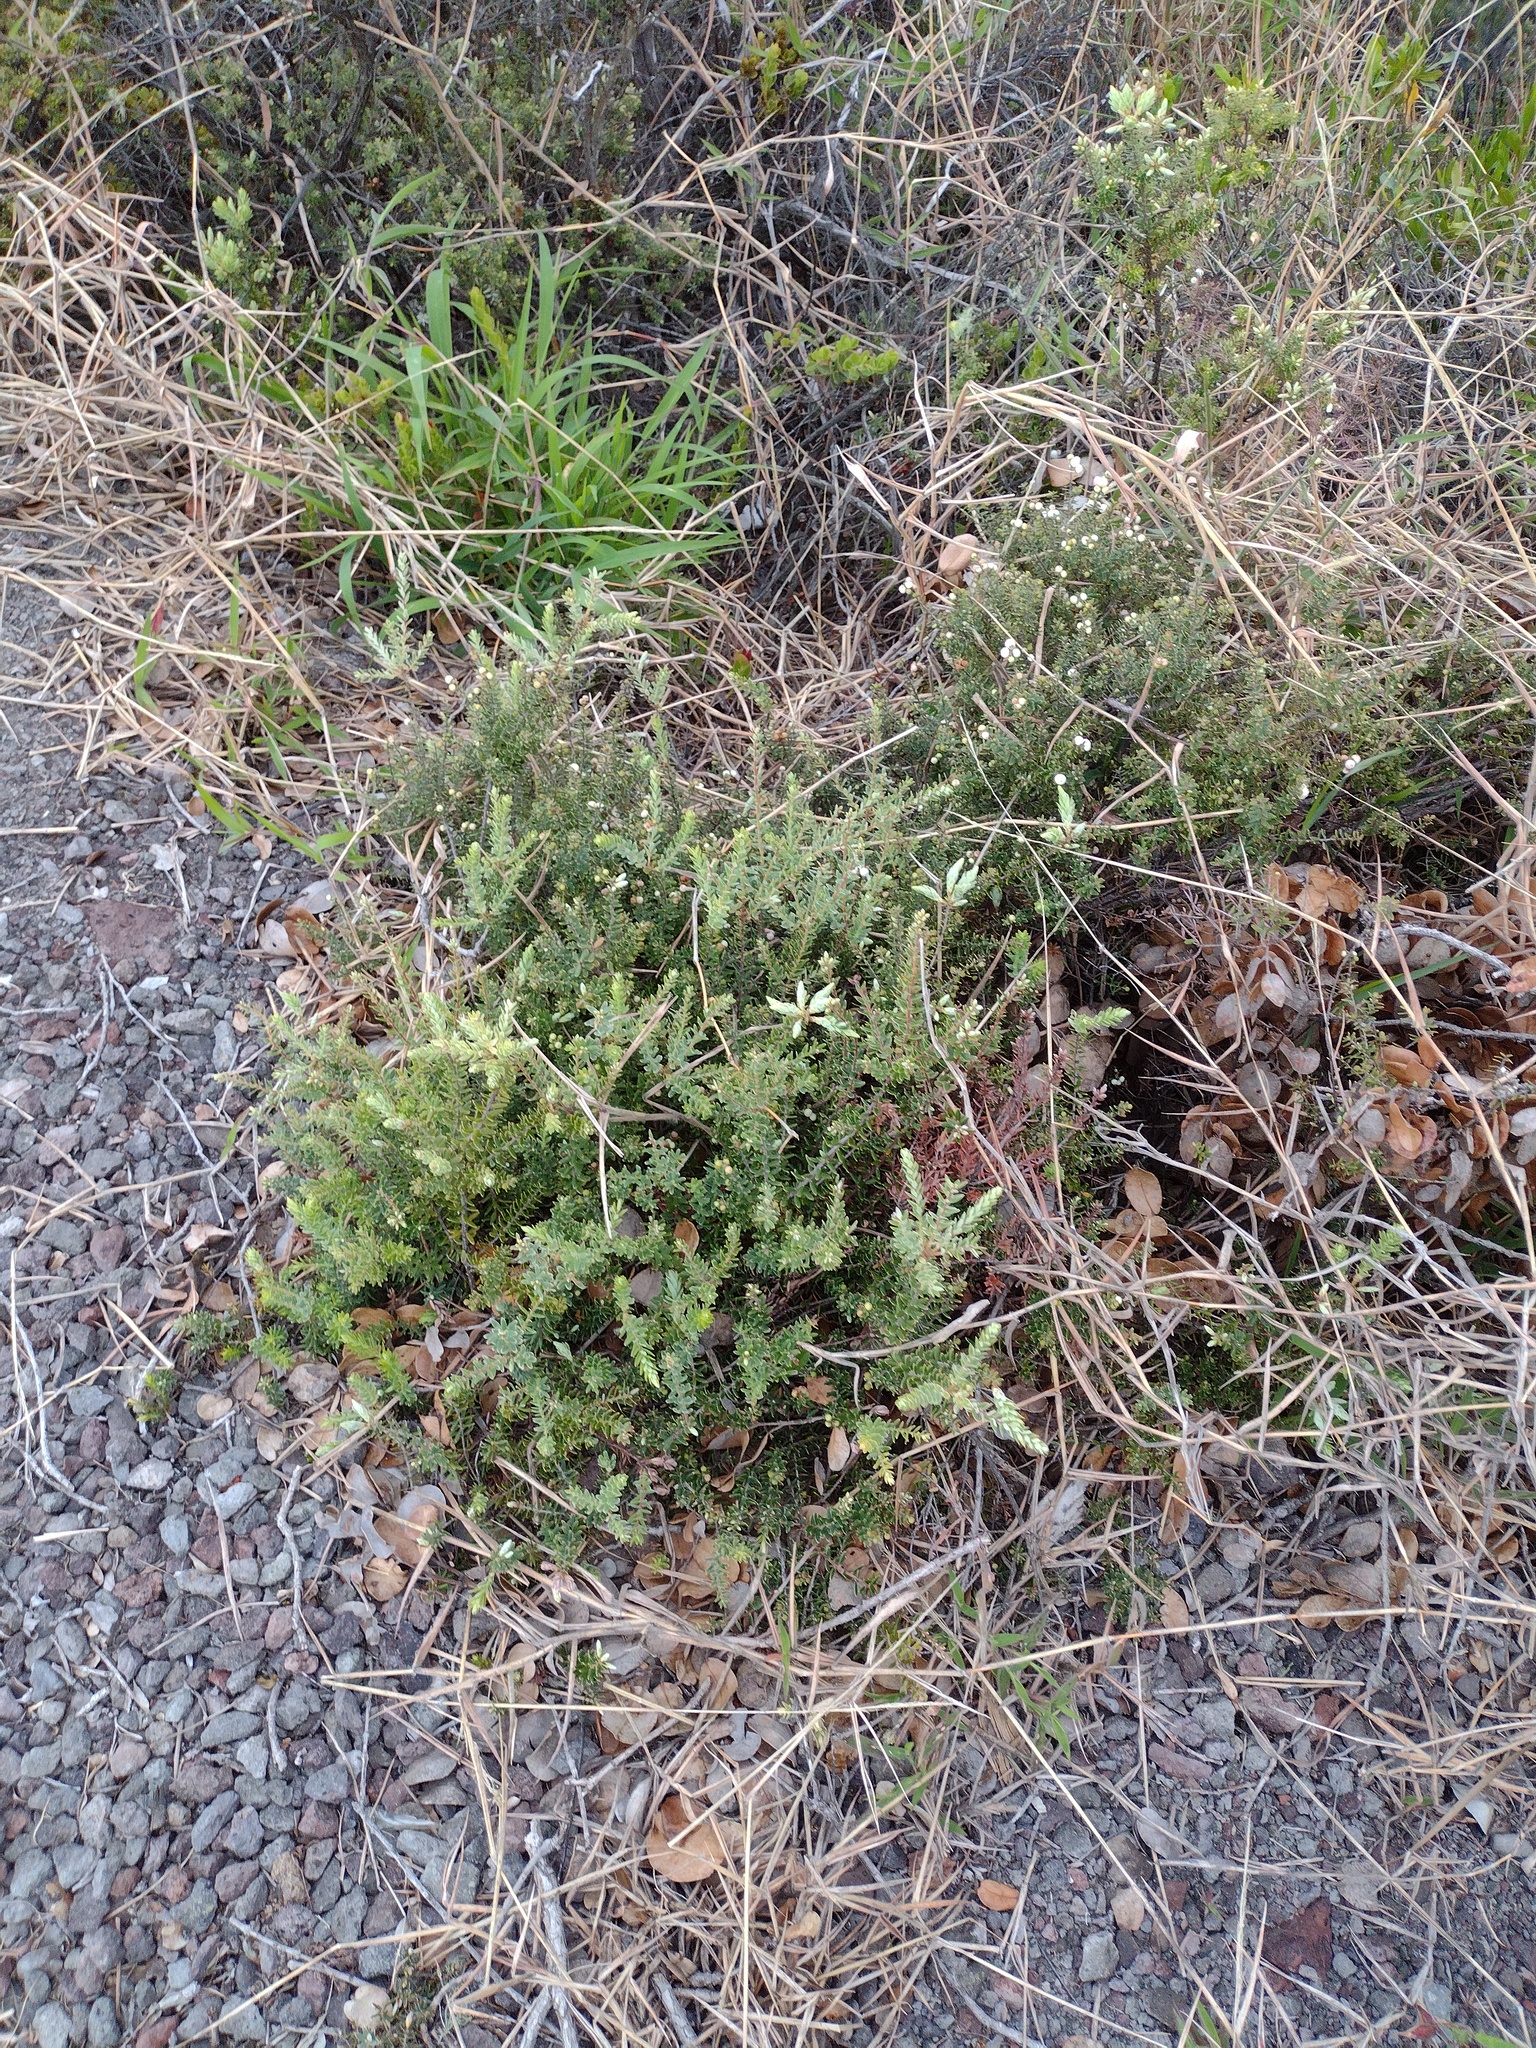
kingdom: Plantae
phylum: Tracheophyta
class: Magnoliopsida
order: Ericales
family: Ericaceae
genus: Leptecophylla
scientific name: Leptecophylla tameiameiae
